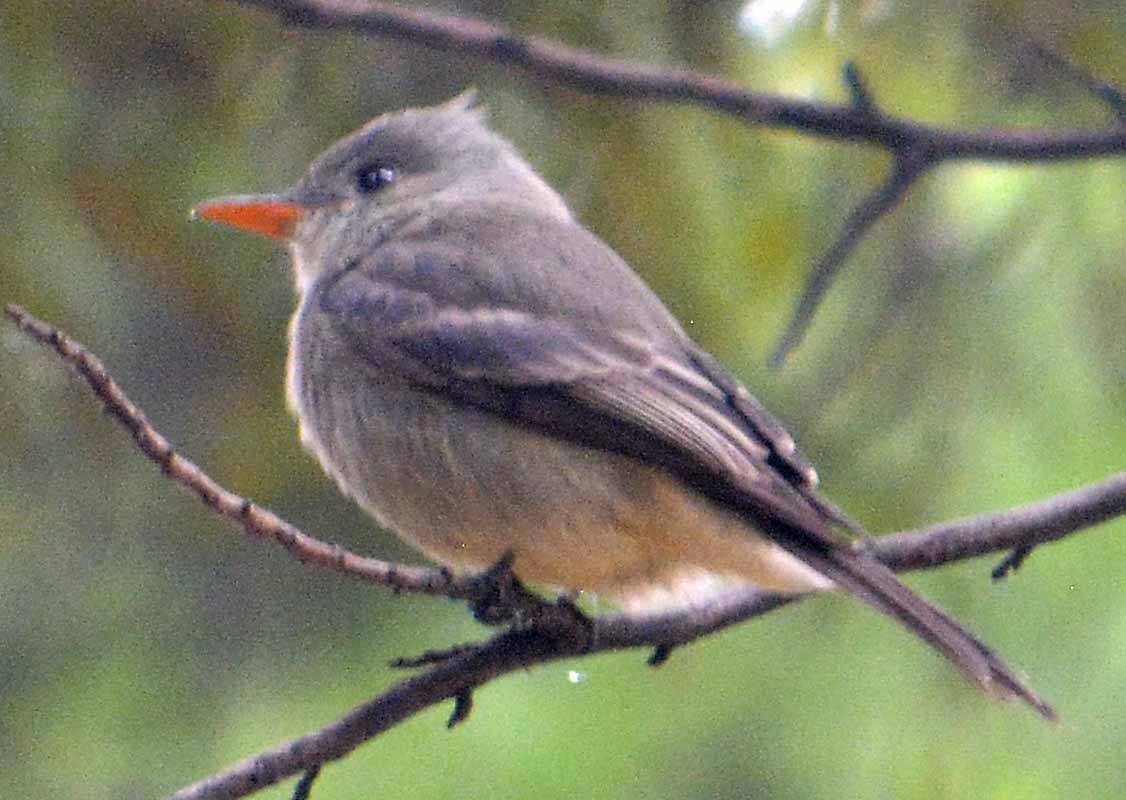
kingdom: Animalia
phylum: Chordata
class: Aves
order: Passeriformes
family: Tyrannidae
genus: Contopus
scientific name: Contopus pertinax
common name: Greater pewee
